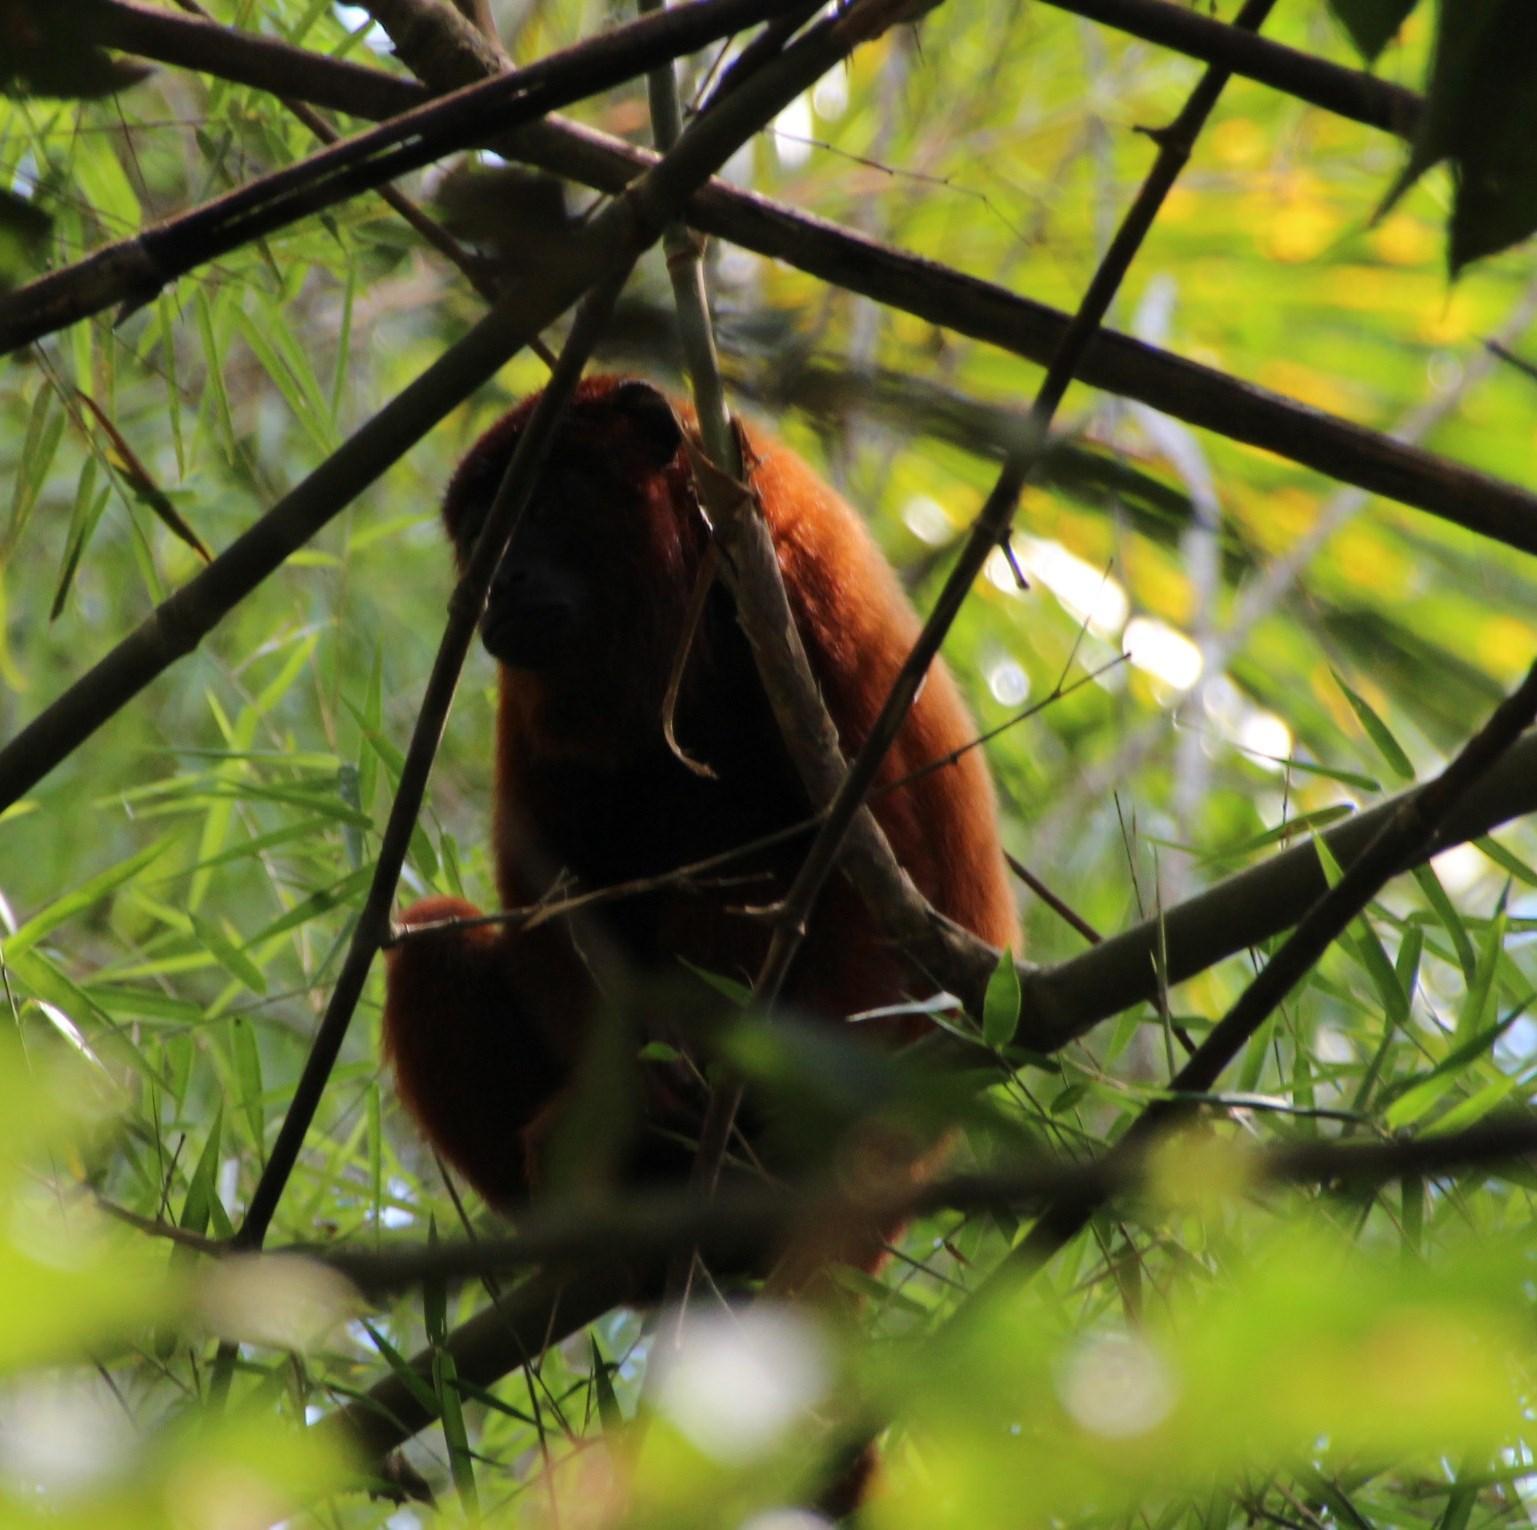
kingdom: Animalia
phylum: Chordata
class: Mammalia
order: Primates
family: Atelidae
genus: Alouatta
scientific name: Alouatta sara
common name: Bolivian red howler
